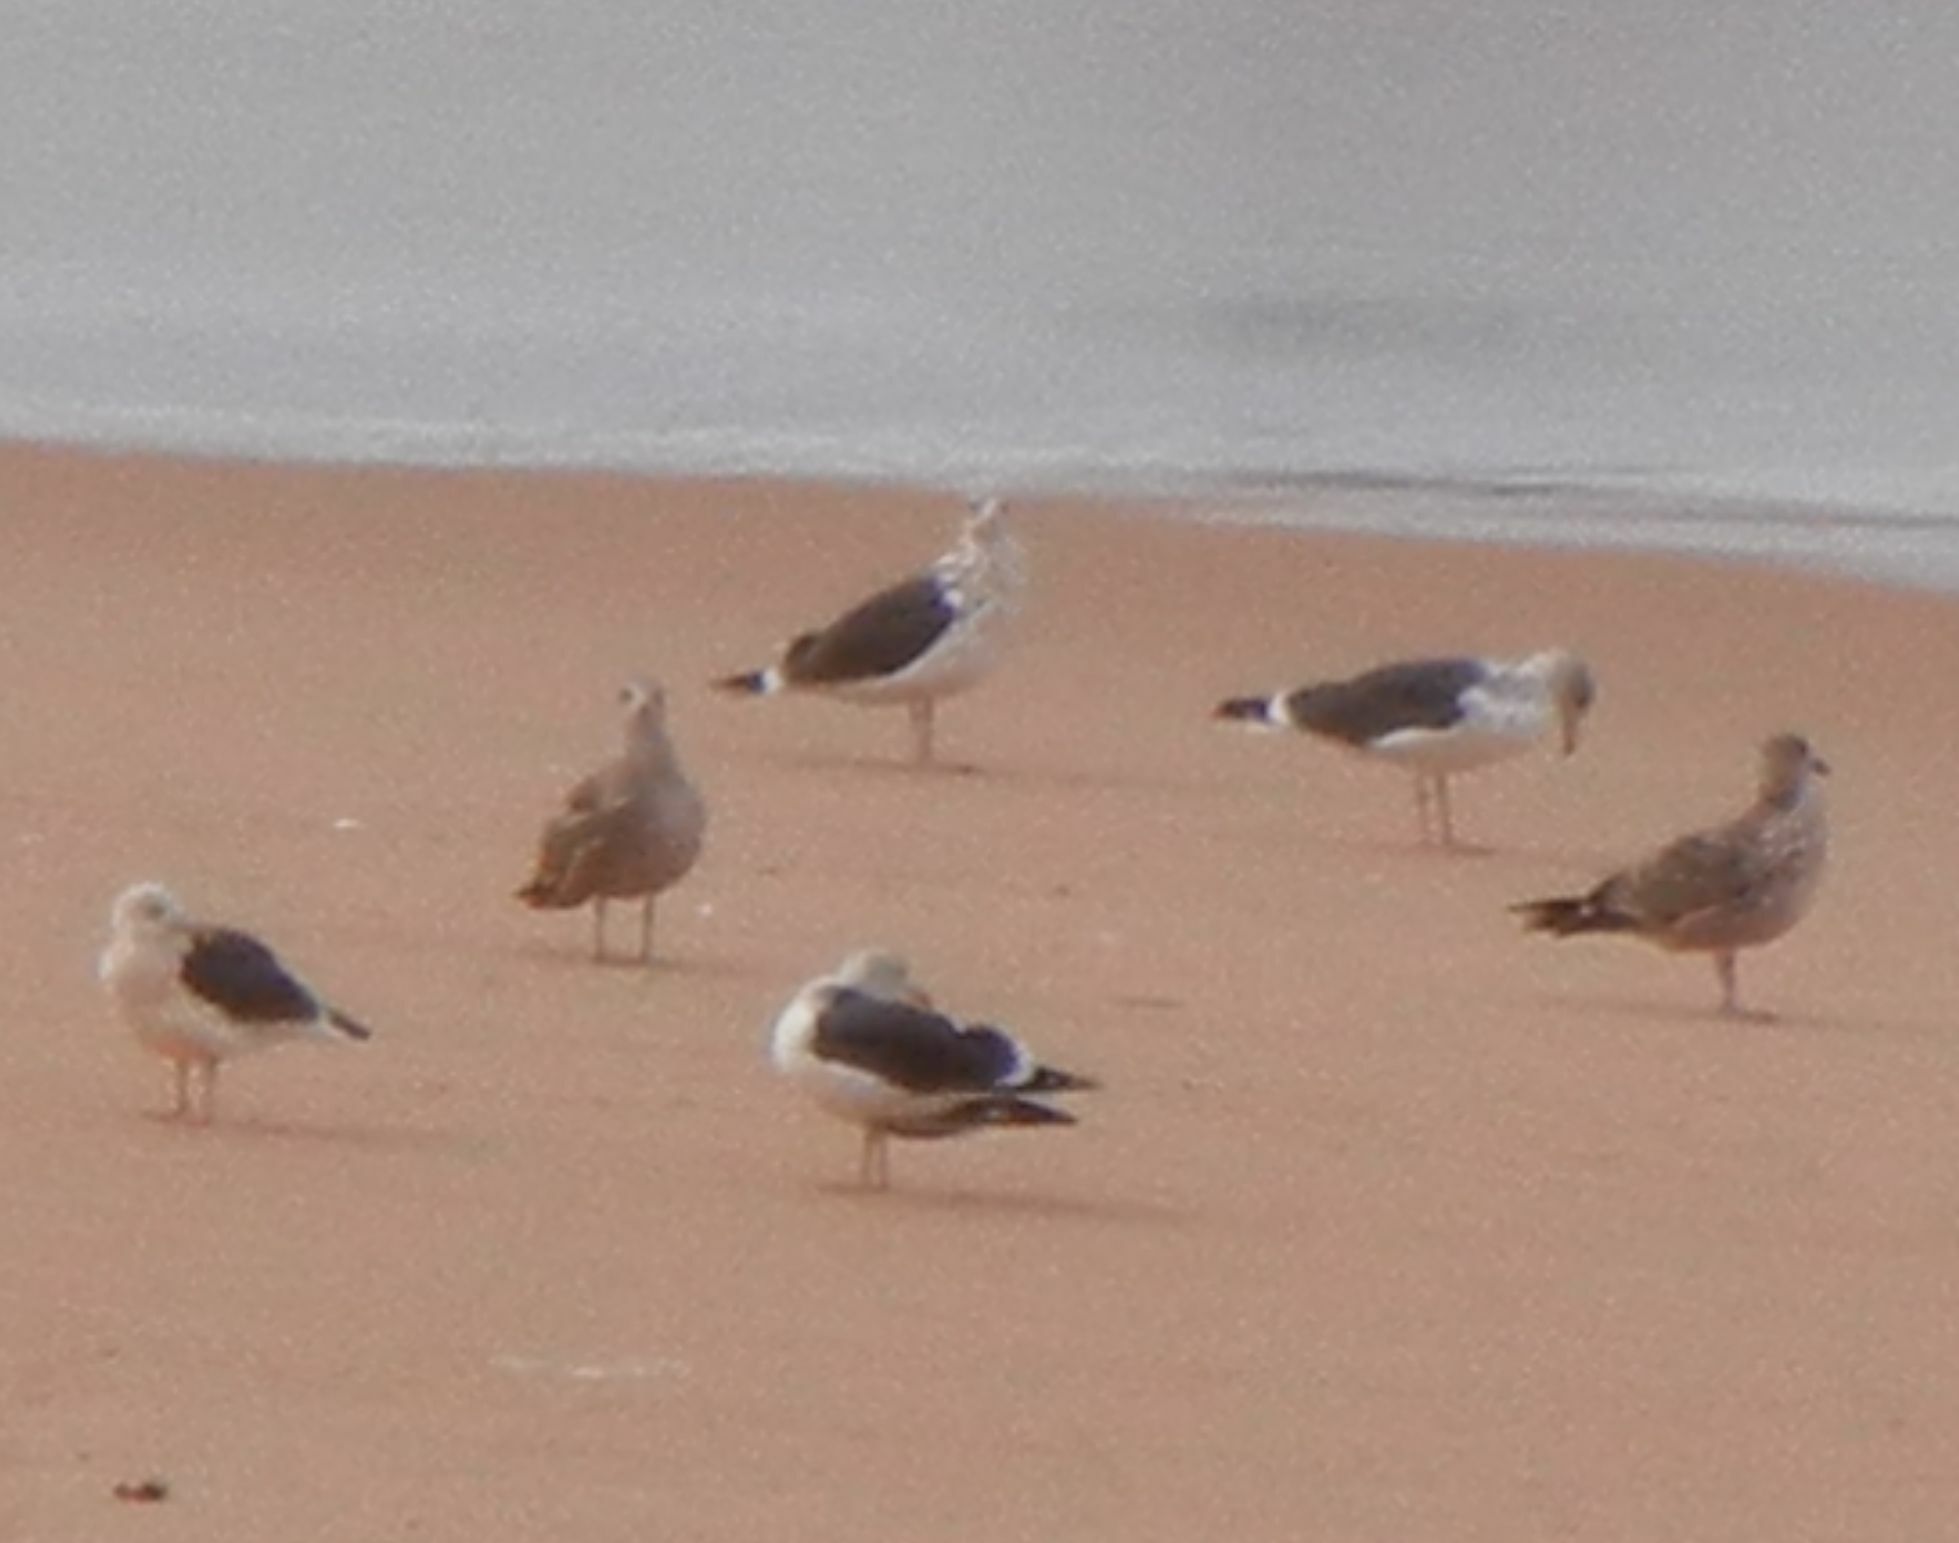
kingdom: Animalia
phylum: Chordata
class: Aves
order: Charadriiformes
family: Laridae
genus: Larus
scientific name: Larus fuscus
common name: Lesser black-backed gull
